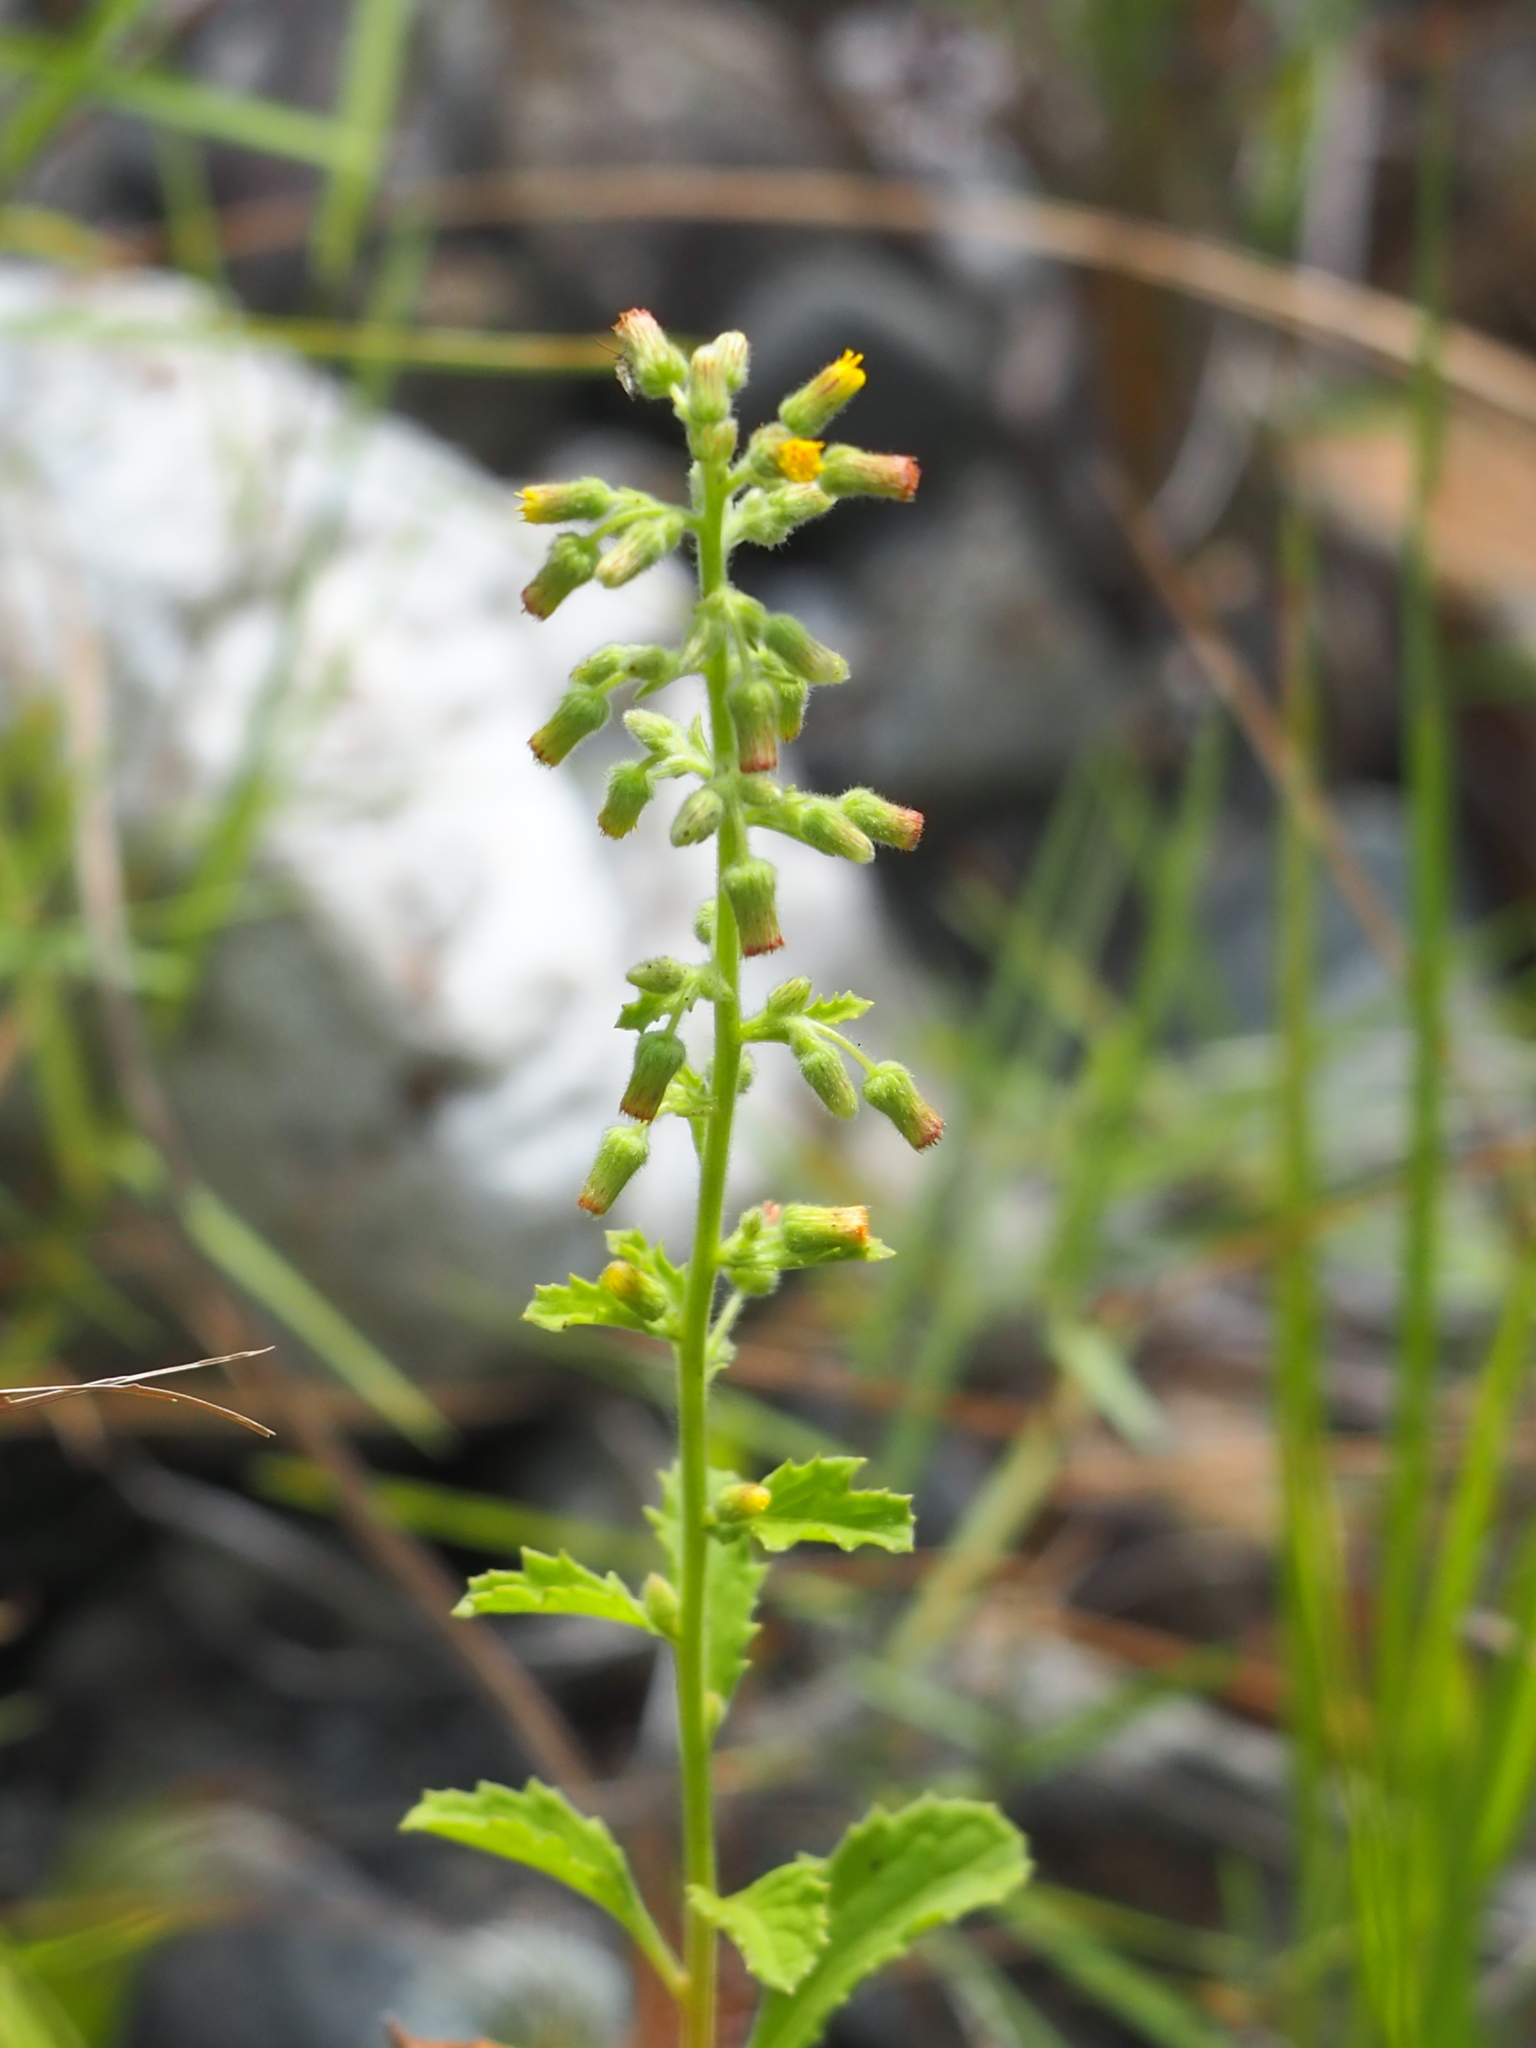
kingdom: Plantae
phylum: Tracheophyta
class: Magnoliopsida
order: Asterales
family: Asteraceae
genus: Blumea
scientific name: Blumea oblongifolia
